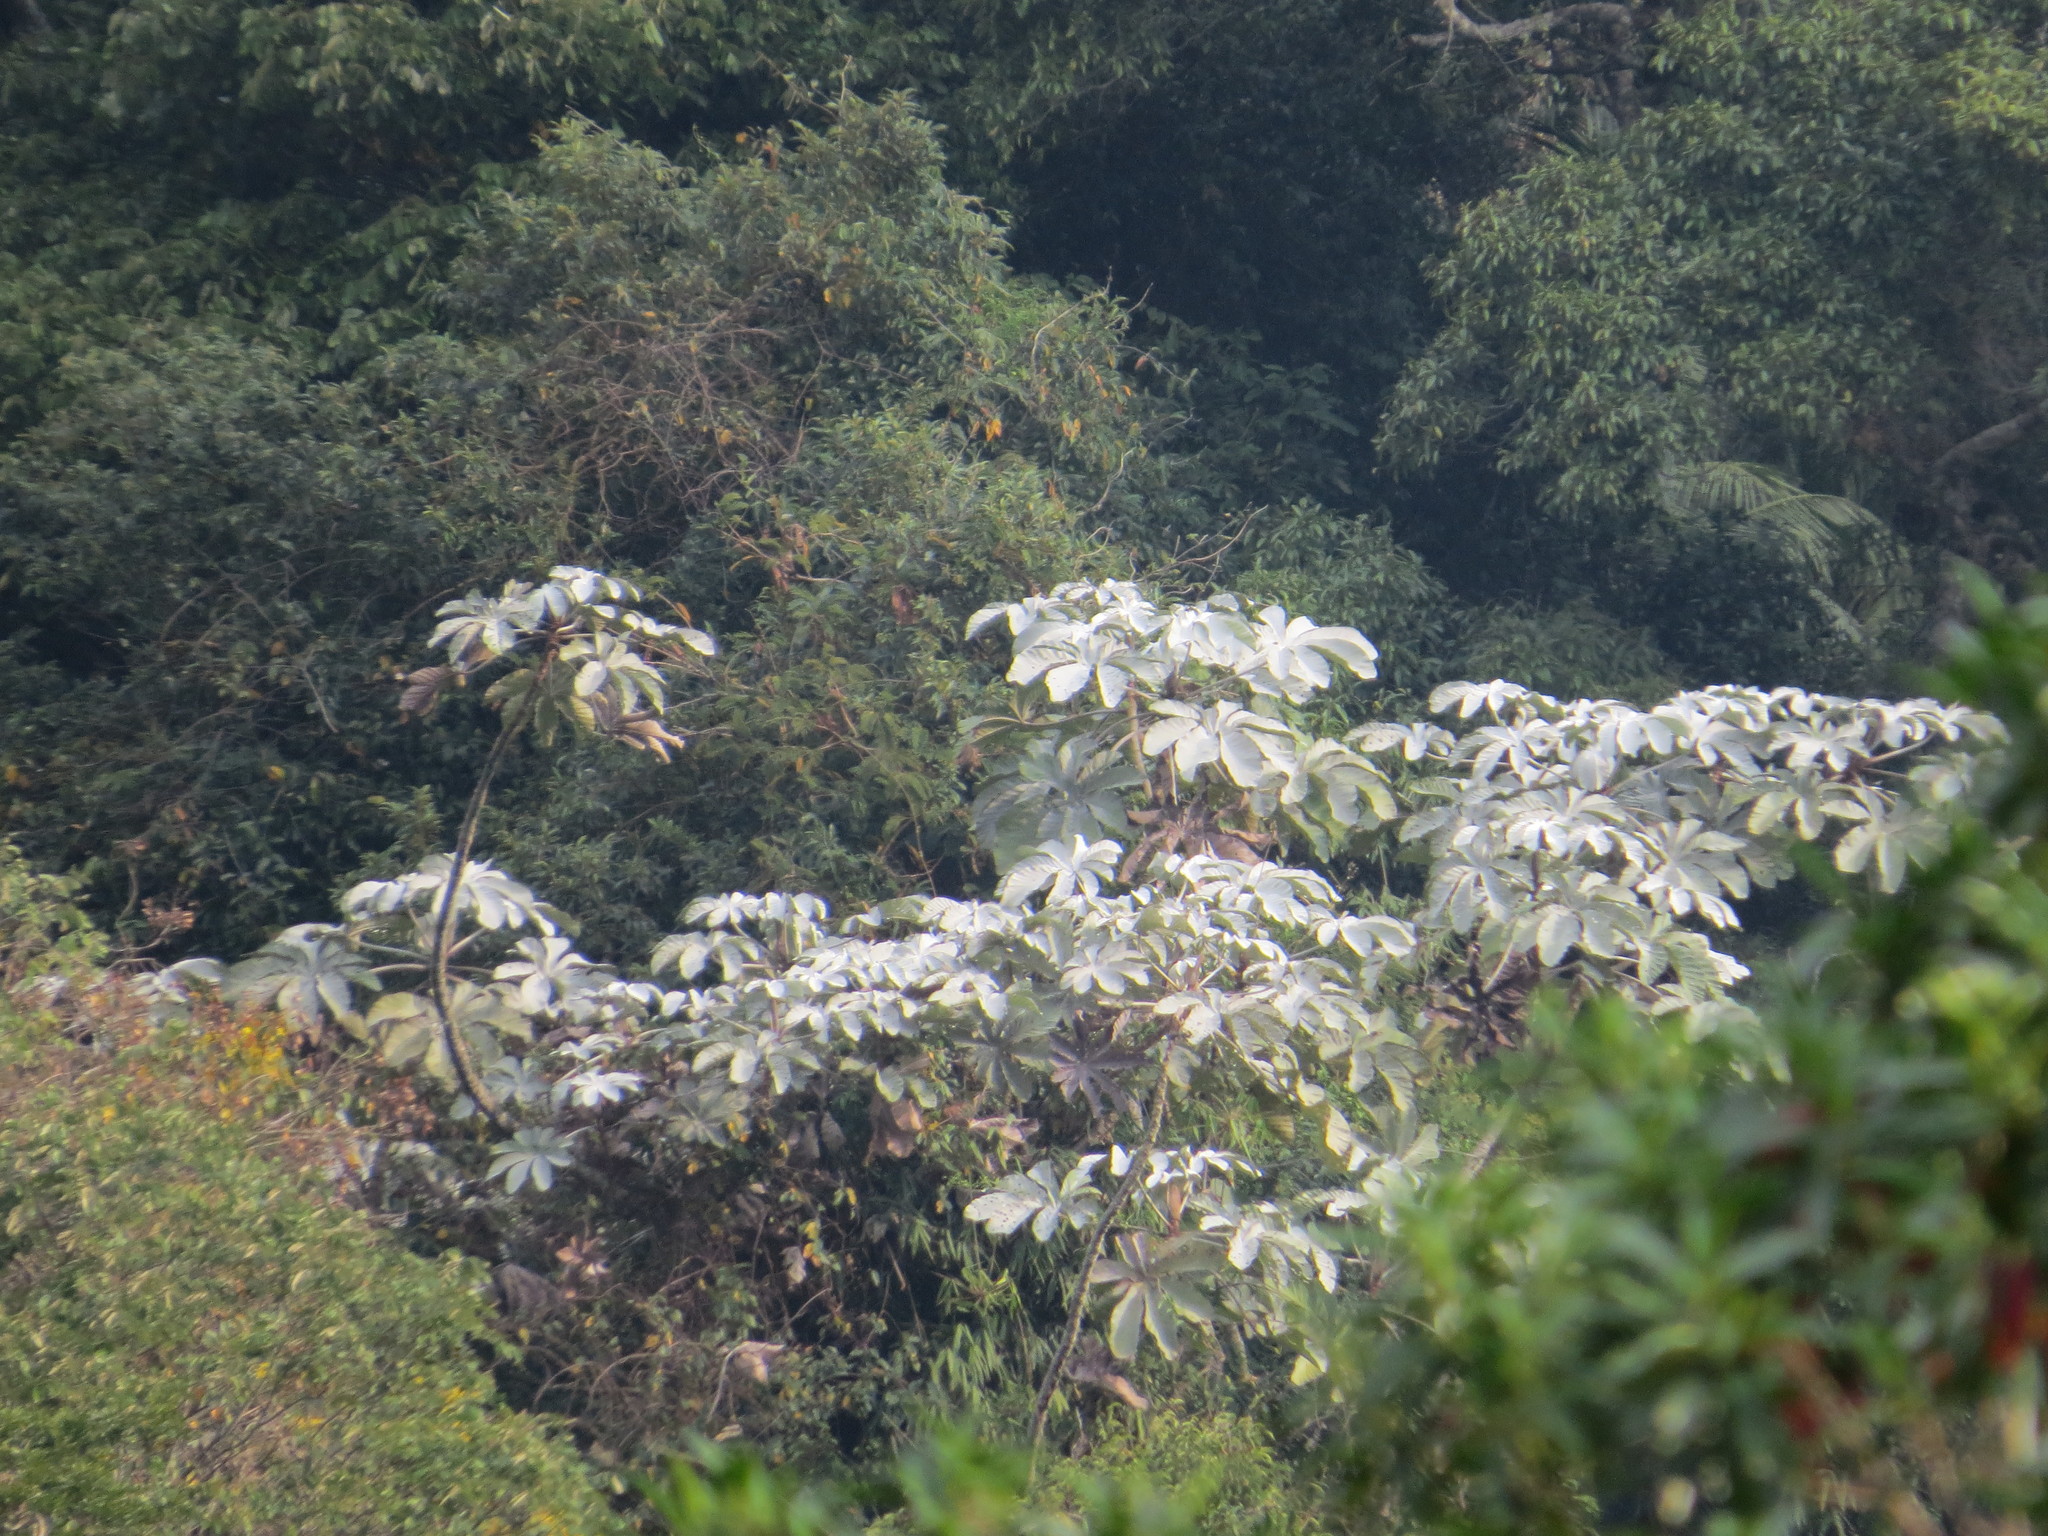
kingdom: Plantae
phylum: Tracheophyta
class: Magnoliopsida
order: Rosales
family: Urticaceae
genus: Cecropia
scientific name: Cecropia hololeuca
